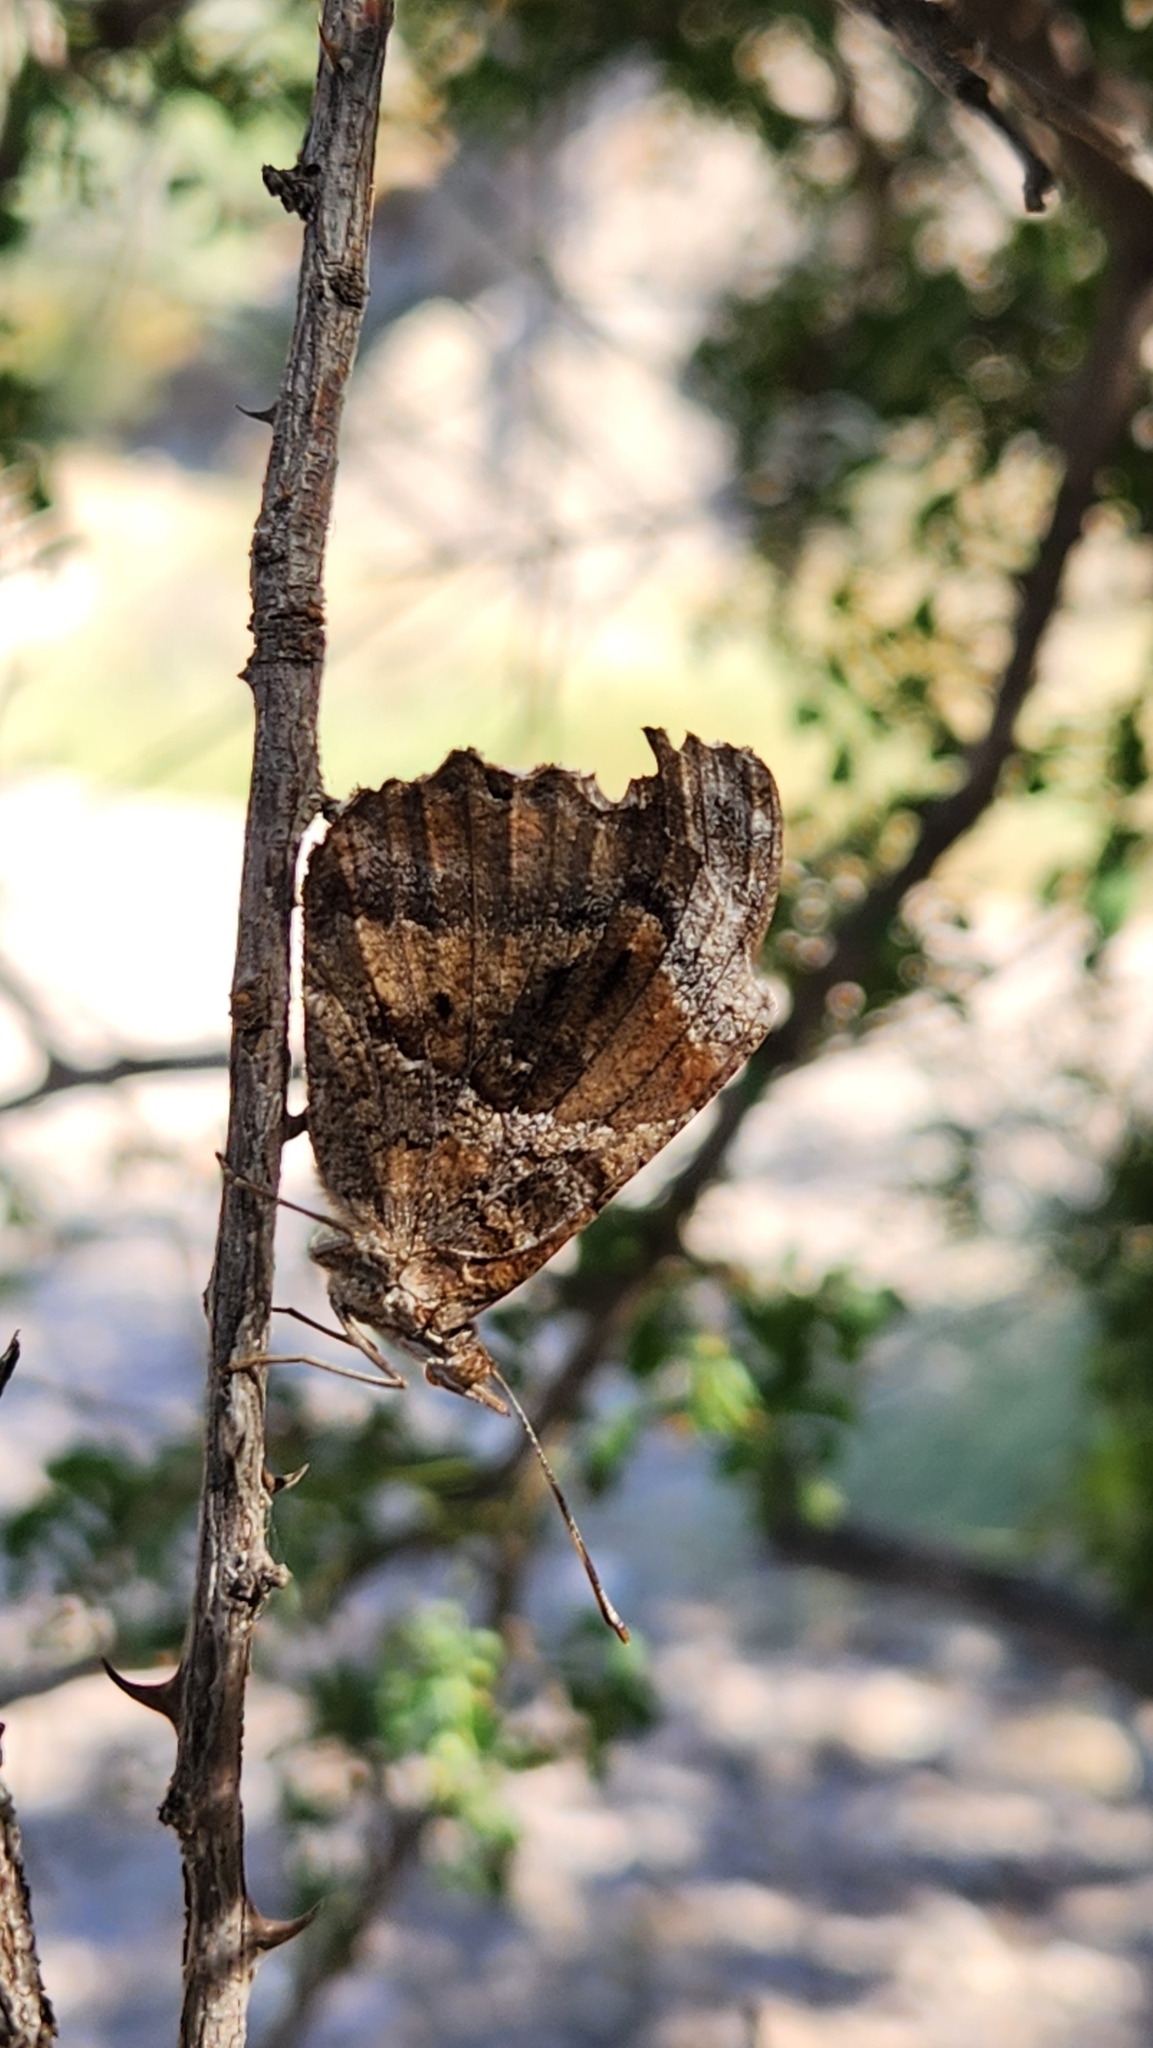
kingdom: Animalia
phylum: Arthropoda
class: Insecta
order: Lepidoptera
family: Nymphalidae
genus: Myscelia
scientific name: Myscelia cyananthe
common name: Blackened bluewing
